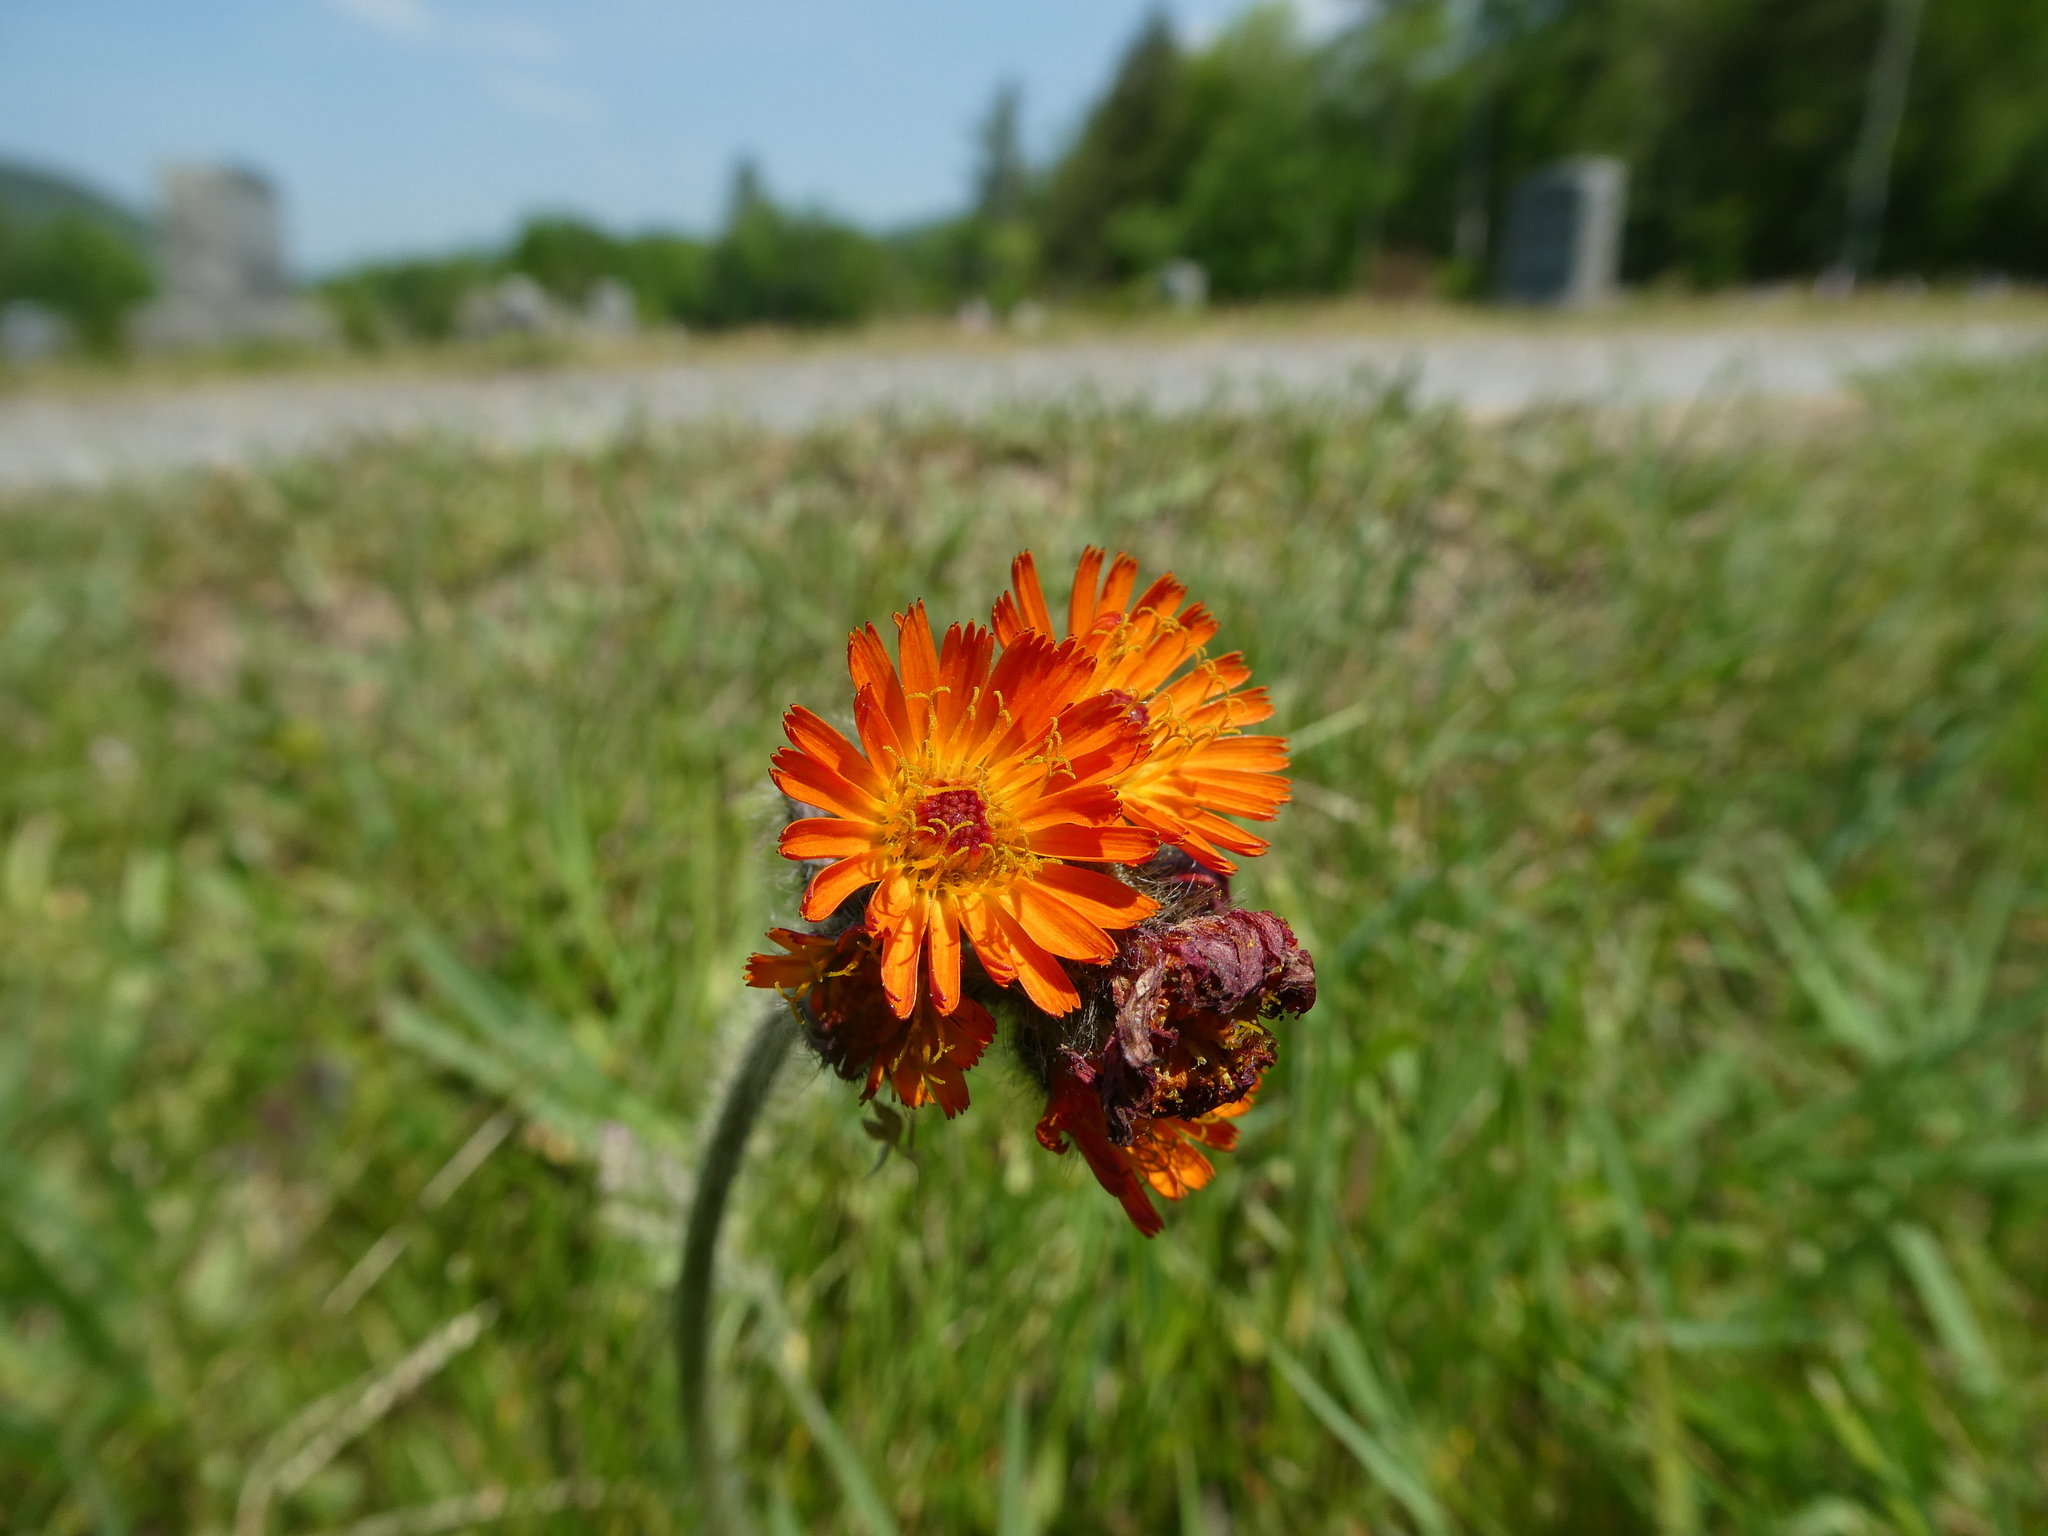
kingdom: Plantae
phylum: Tracheophyta
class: Magnoliopsida
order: Asterales
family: Asteraceae
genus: Pilosella
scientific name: Pilosella aurantiaca
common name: Fox-and-cubs
